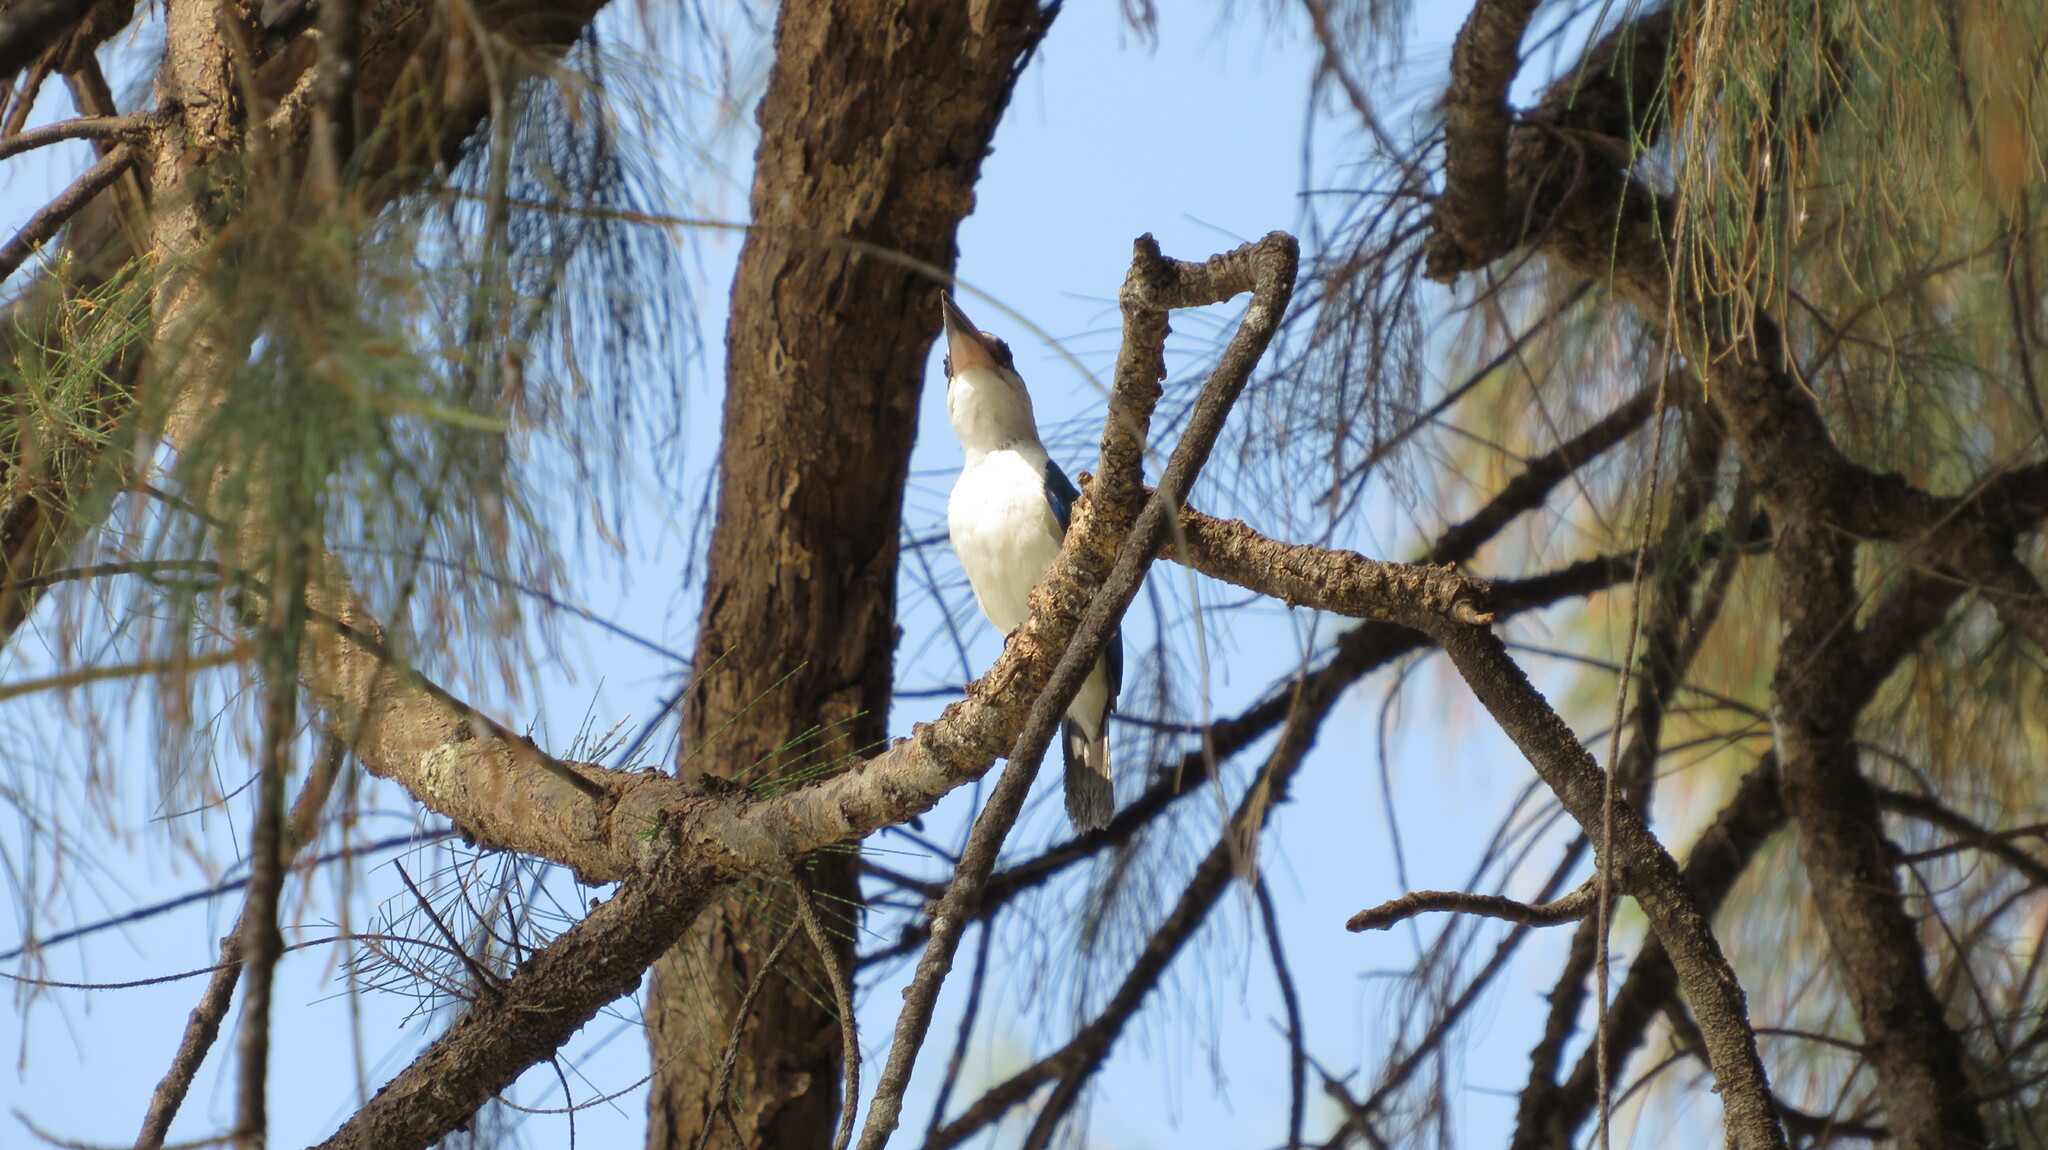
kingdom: Animalia
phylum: Chordata
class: Aves
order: Coraciiformes
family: Alcedinidae
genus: Todiramphus
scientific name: Todiramphus chloris
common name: Collared kingfisher
